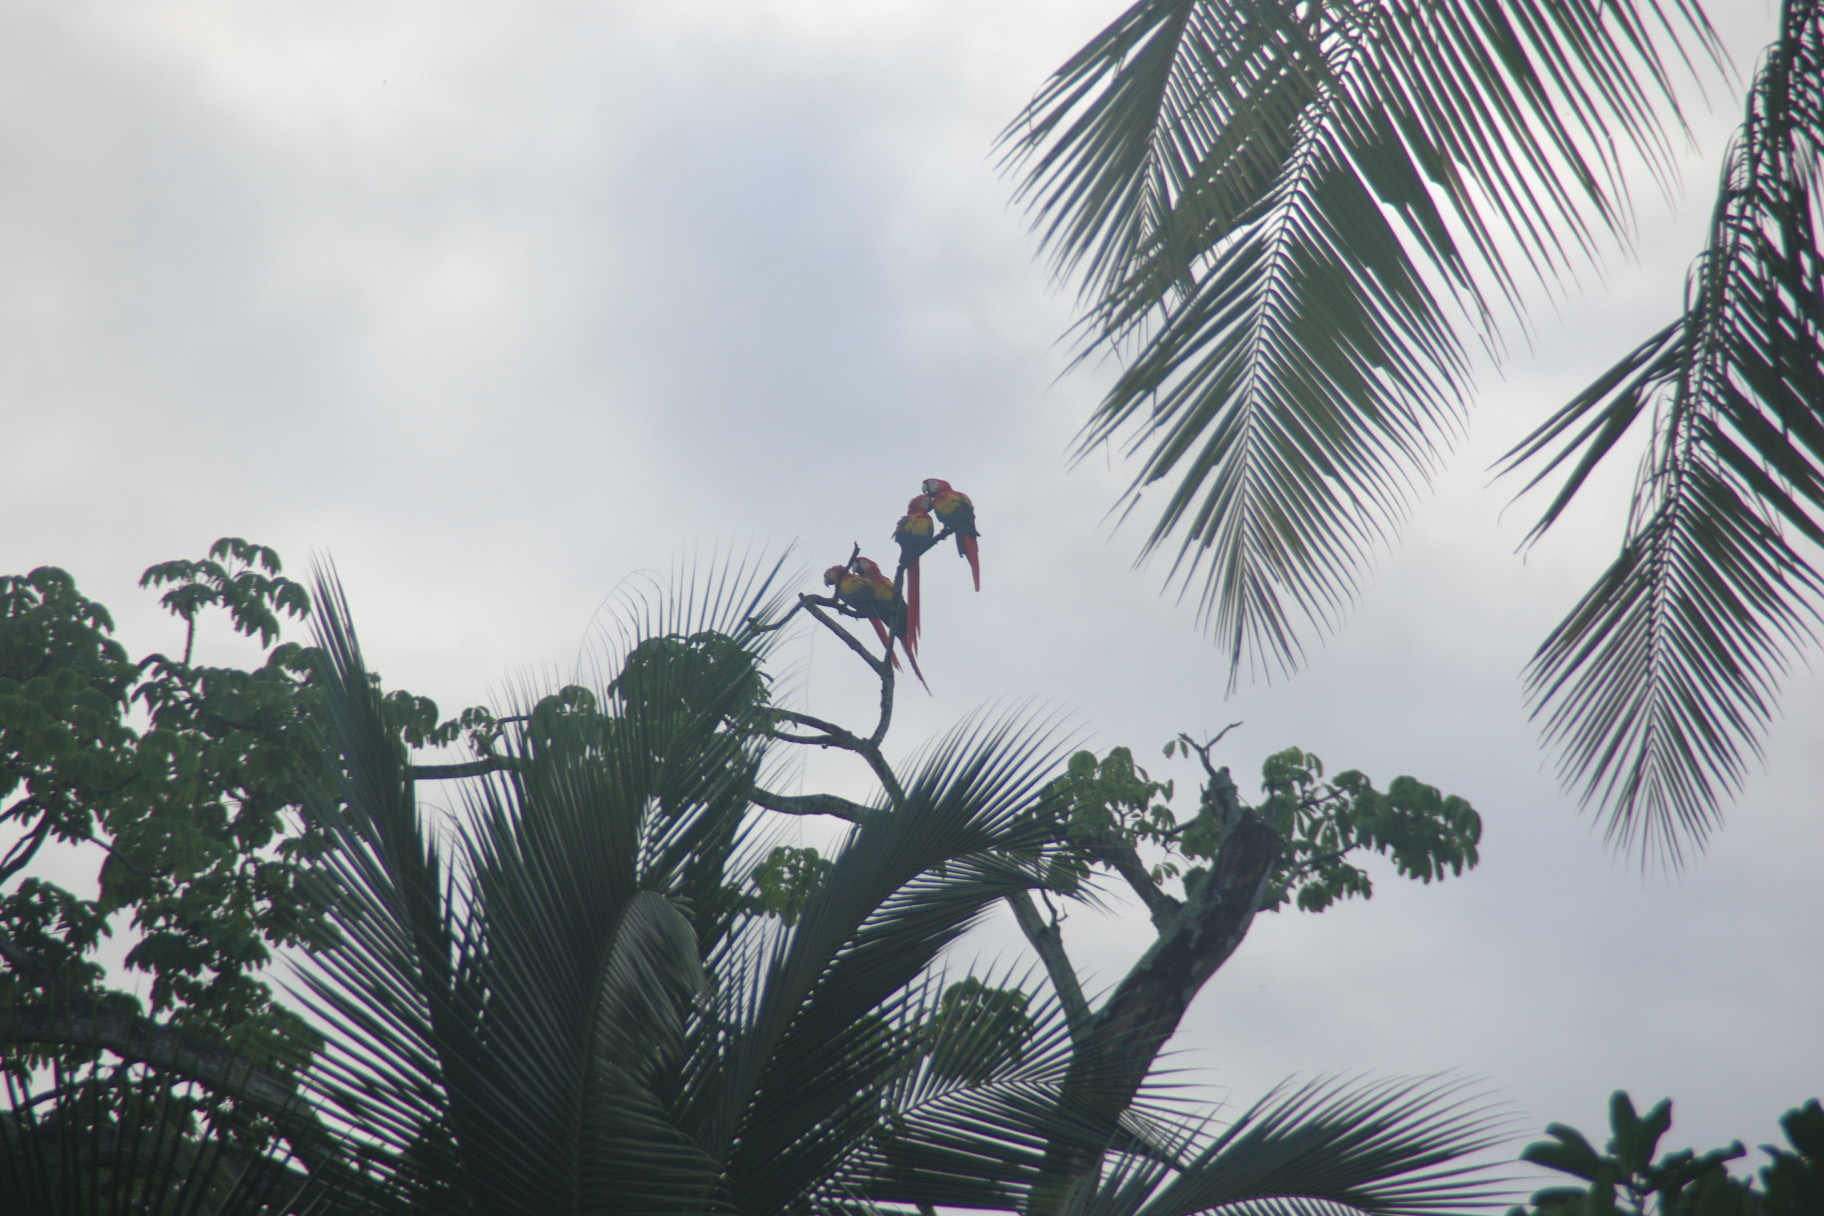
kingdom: Animalia
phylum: Chordata
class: Aves
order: Psittaciformes
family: Psittacidae
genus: Ara
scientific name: Ara macao
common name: Scarlet macaw
